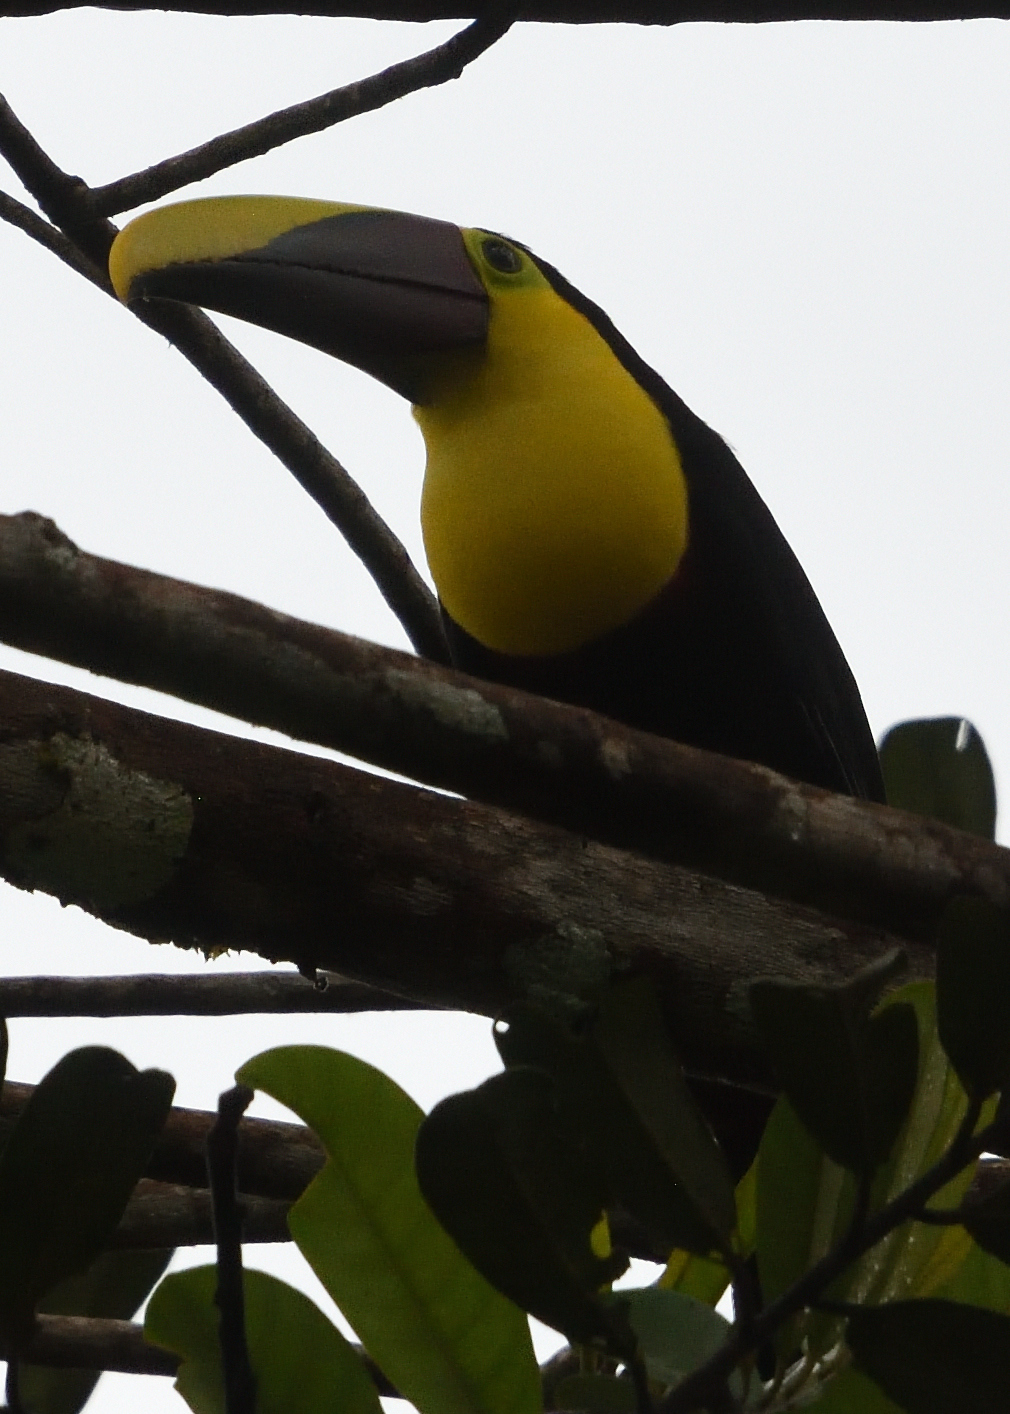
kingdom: Animalia
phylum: Chordata
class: Aves
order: Piciformes
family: Ramphastidae
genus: Ramphastos
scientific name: Ramphastos ambiguus
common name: Yellow-throated toucan
